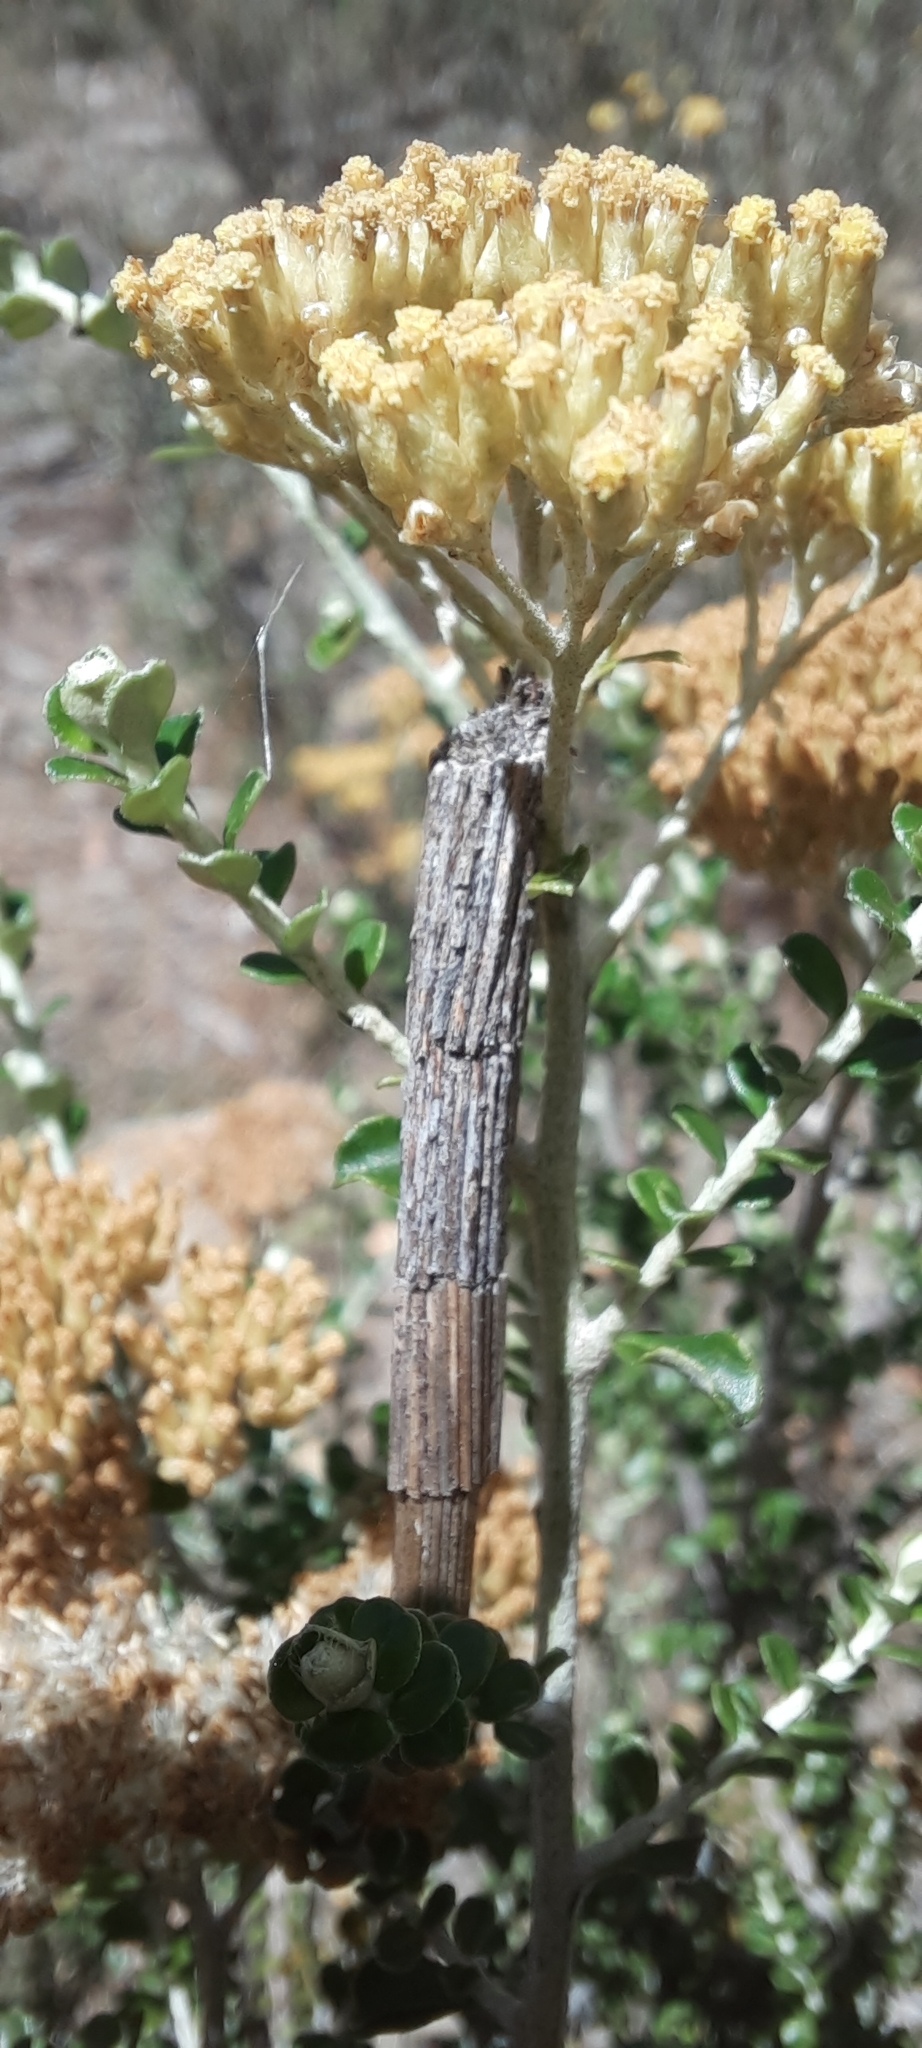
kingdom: Animalia
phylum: Arthropoda
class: Insecta
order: Lepidoptera
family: Psychidae
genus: Lepidoscia
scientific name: Lepidoscia arctiella
